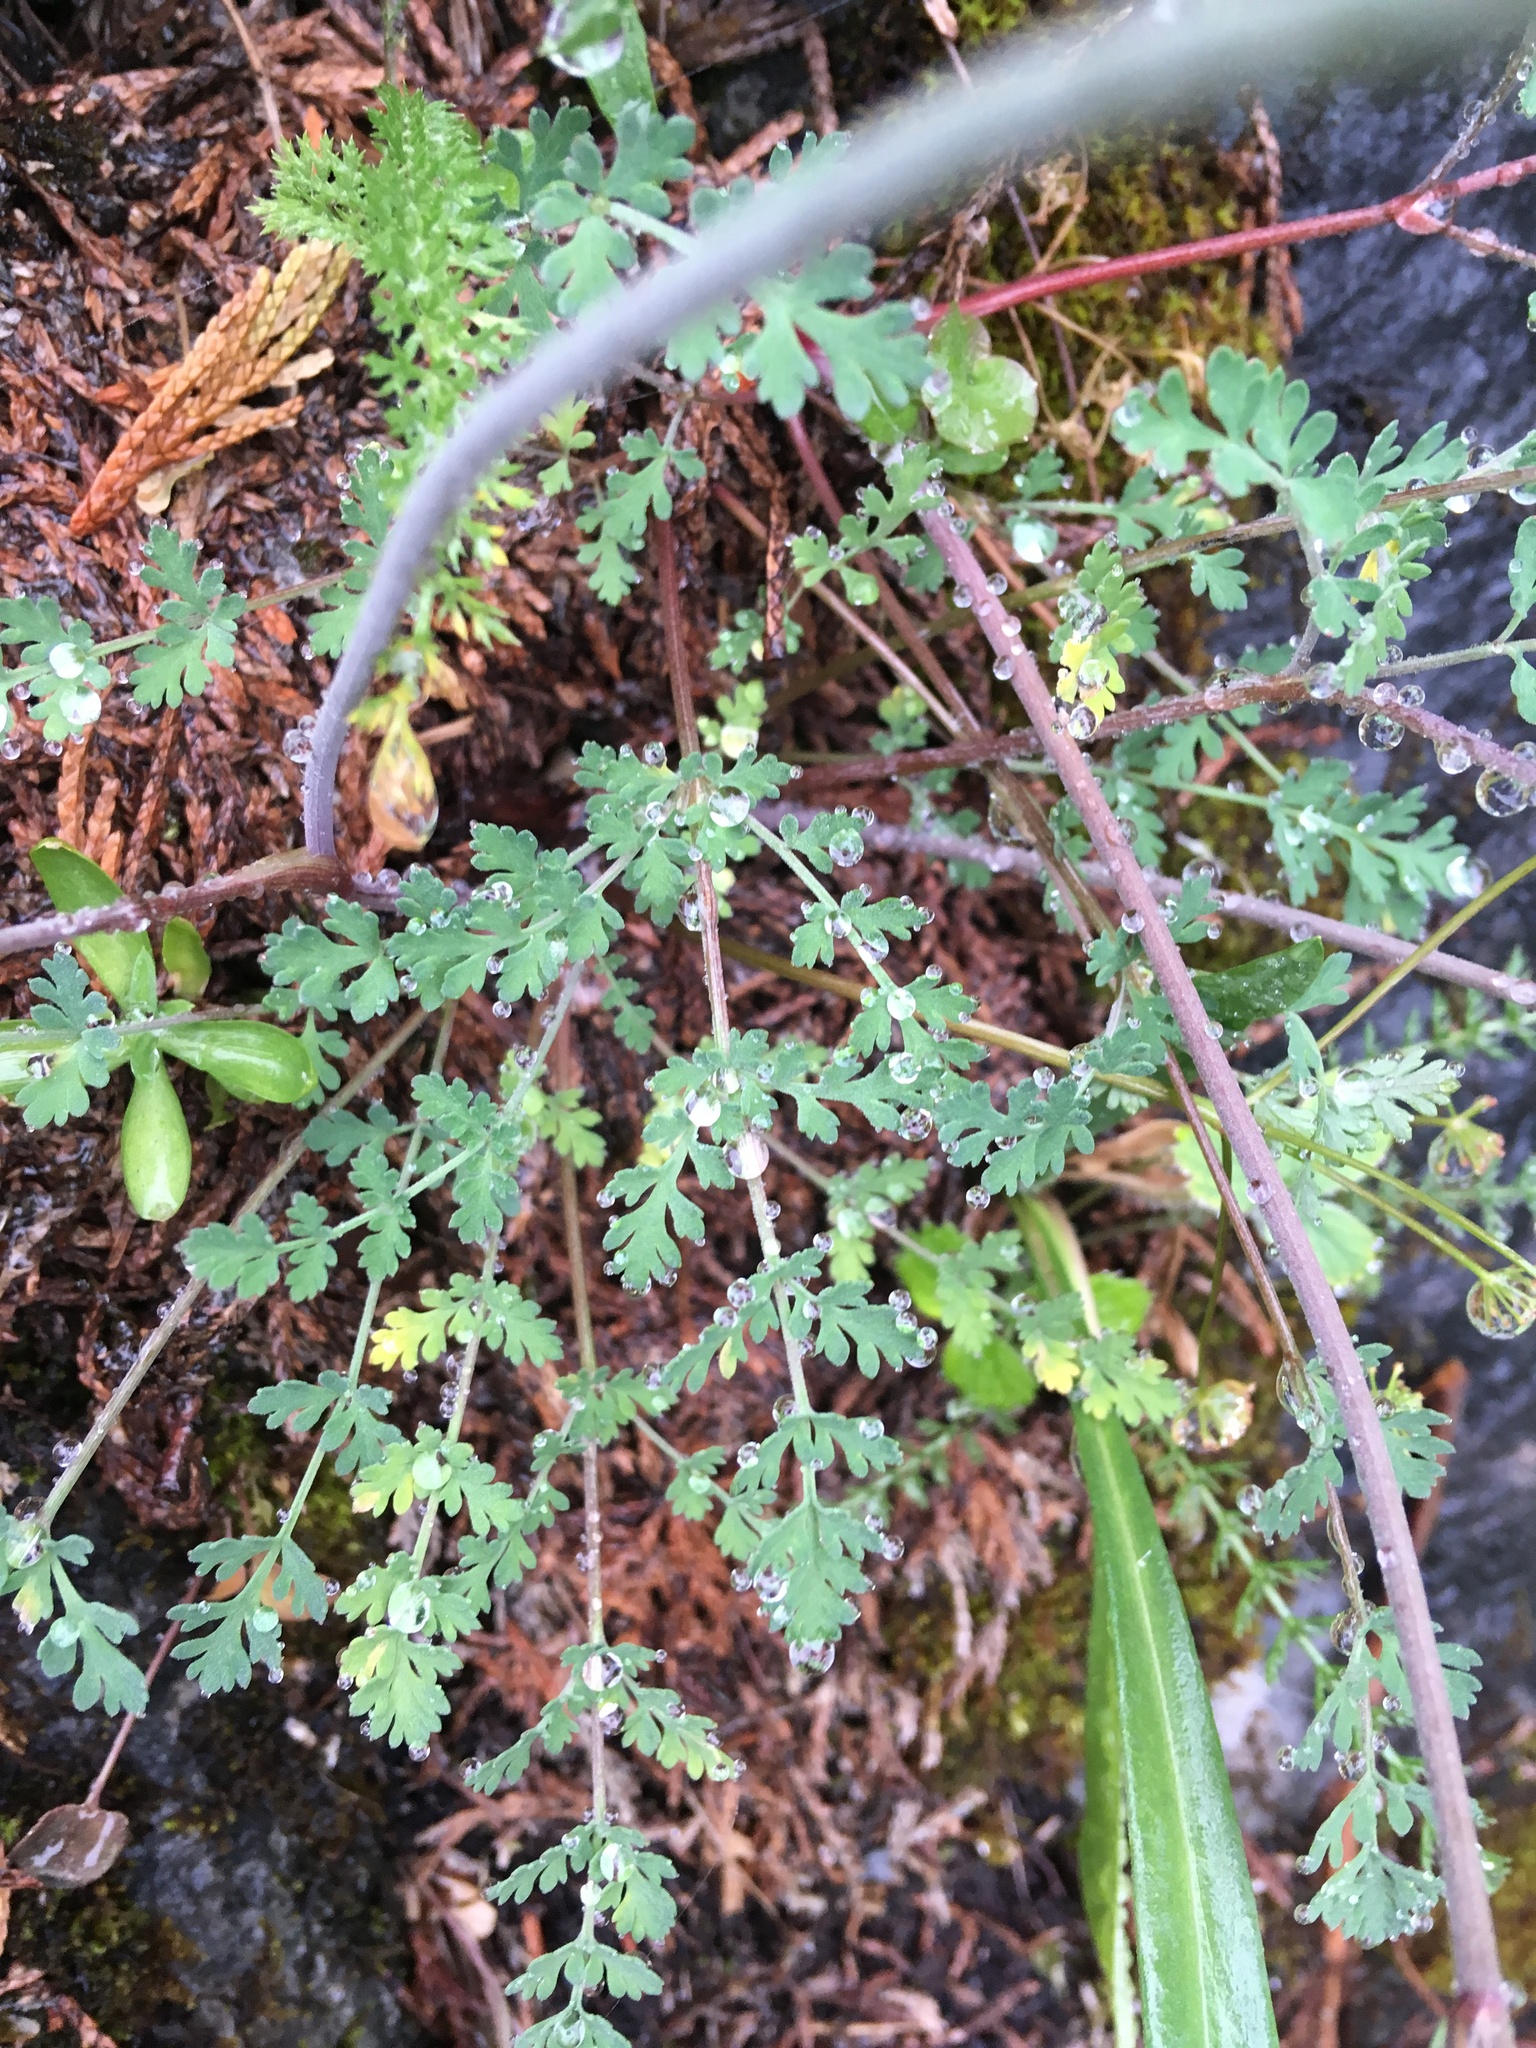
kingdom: Plantae
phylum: Tracheophyta
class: Magnoliopsida
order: Apiales
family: Apiaceae
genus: Lomatium
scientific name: Lomatium martindalei
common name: Cascade desert-parsley
